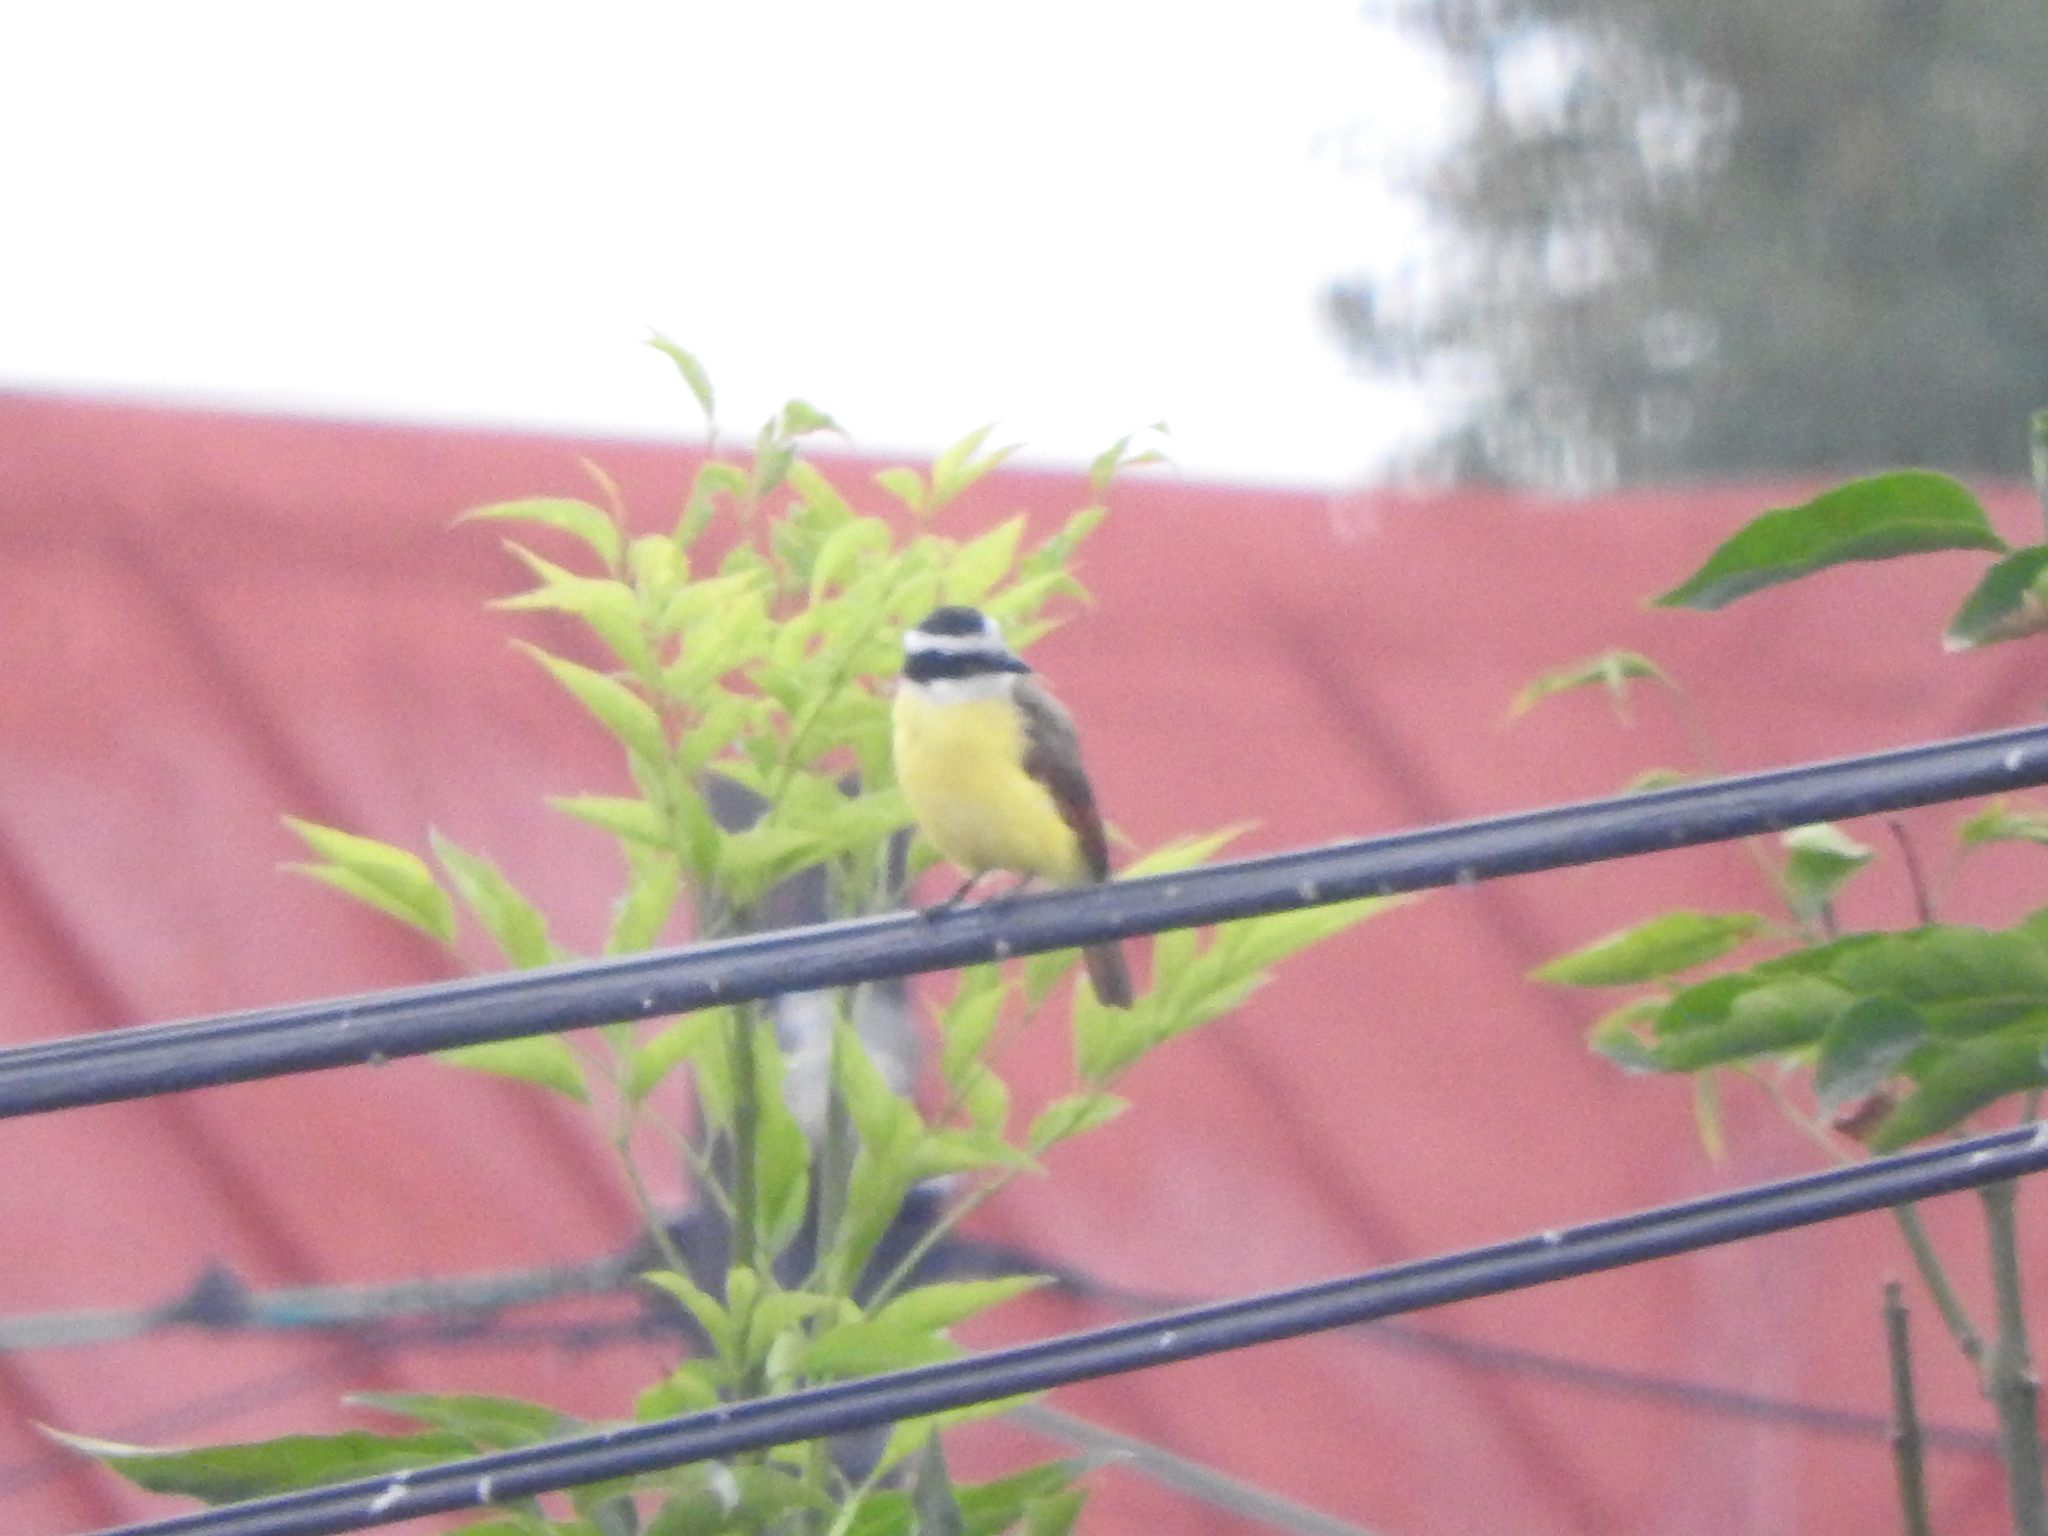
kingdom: Animalia
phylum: Chordata
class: Aves
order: Passeriformes
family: Tyrannidae
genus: Pitangus
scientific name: Pitangus sulphuratus
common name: Great kiskadee
